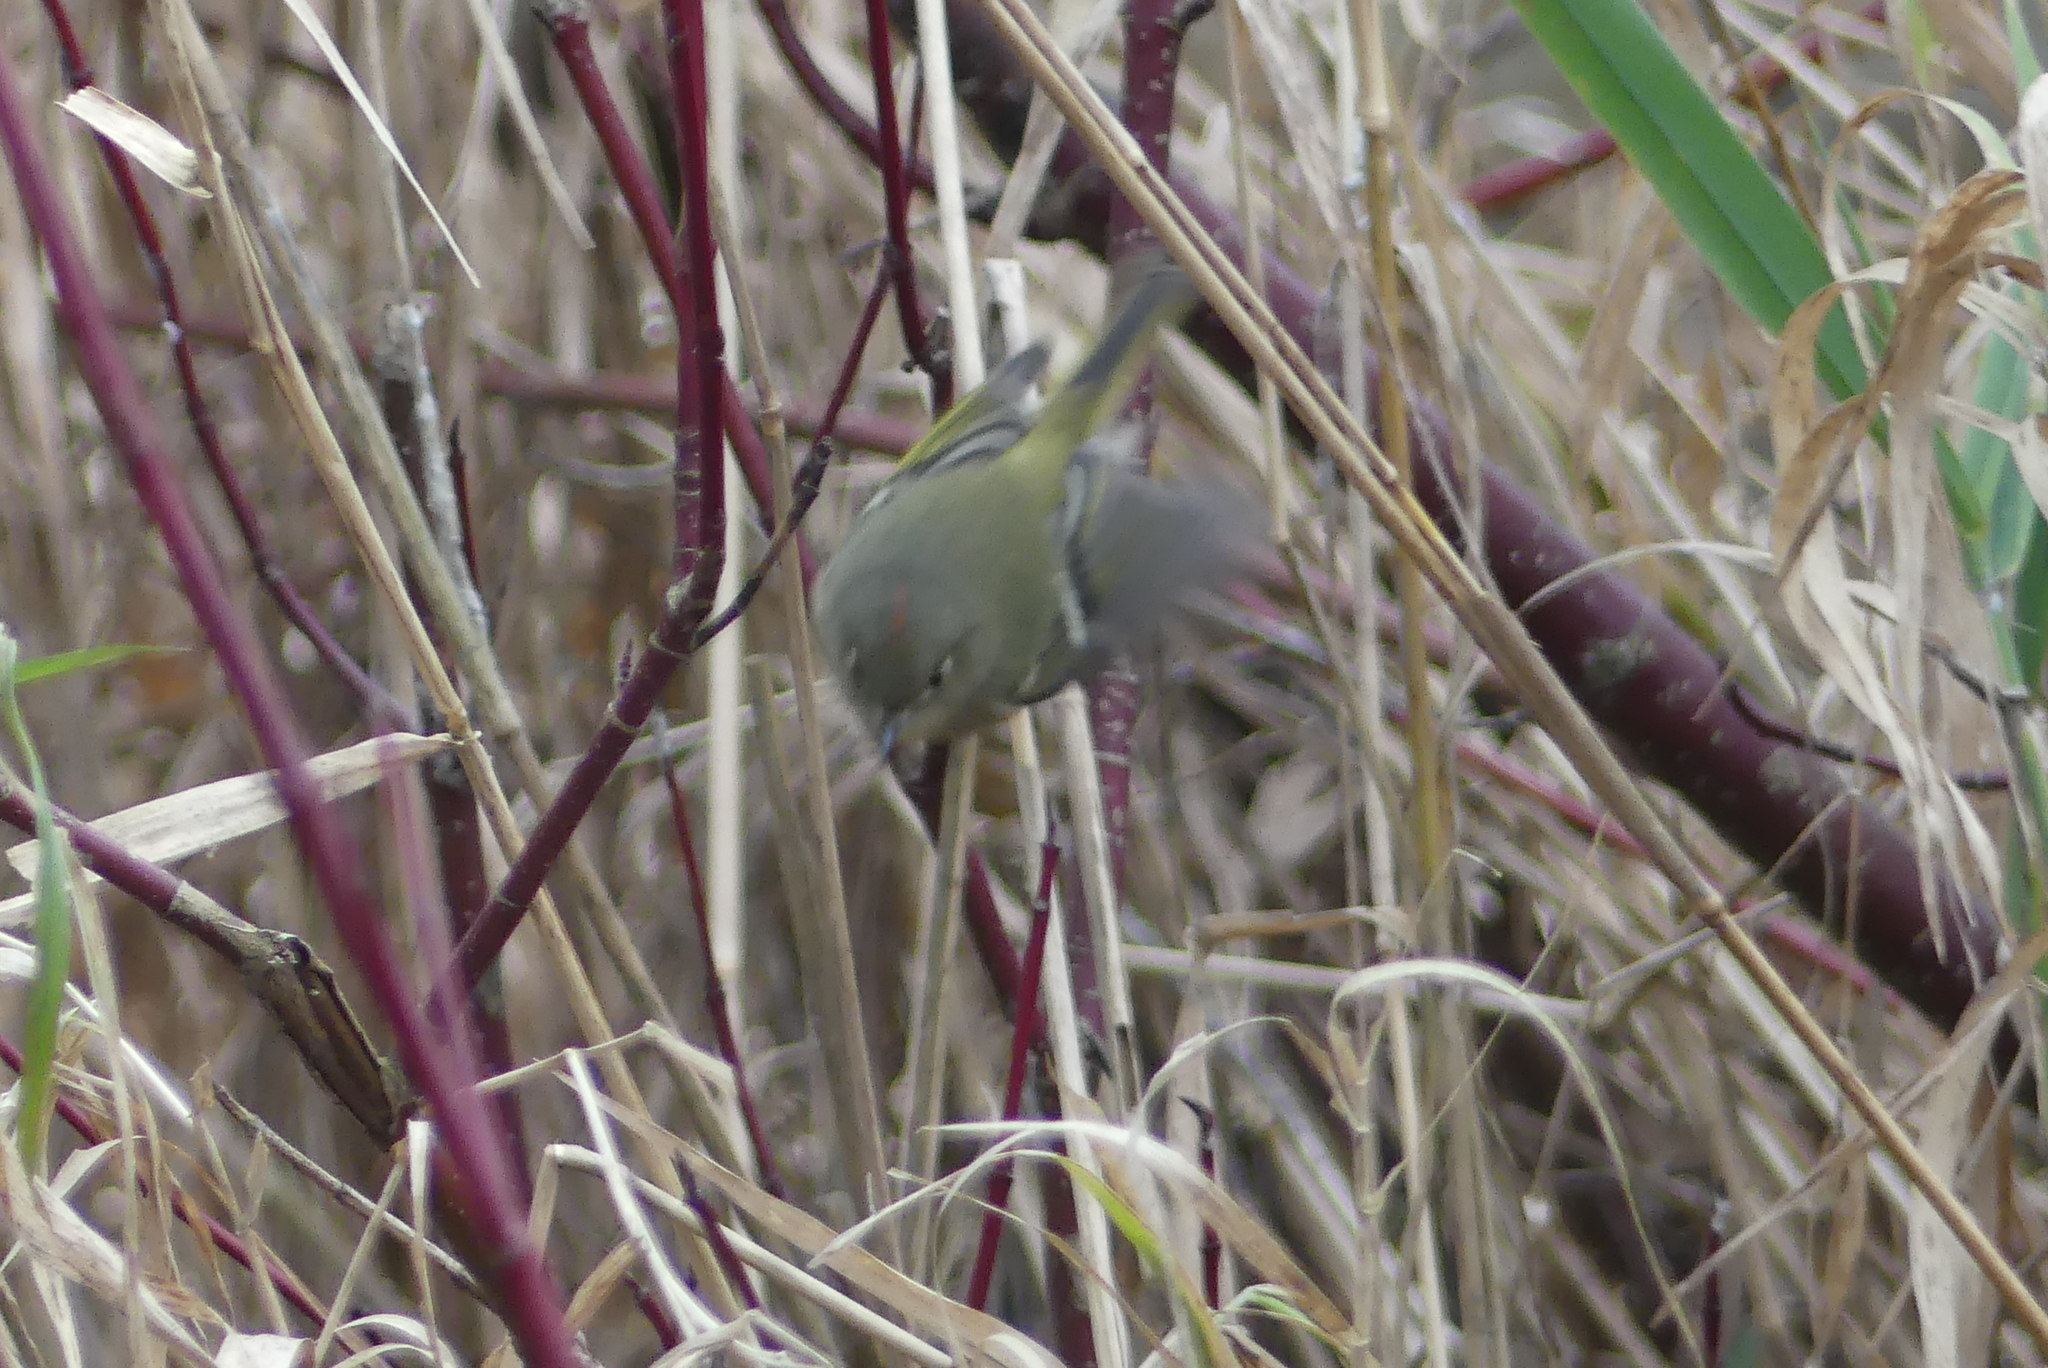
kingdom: Animalia
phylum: Chordata
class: Aves
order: Passeriformes
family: Regulidae
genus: Regulus
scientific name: Regulus calendula
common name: Ruby-crowned kinglet
